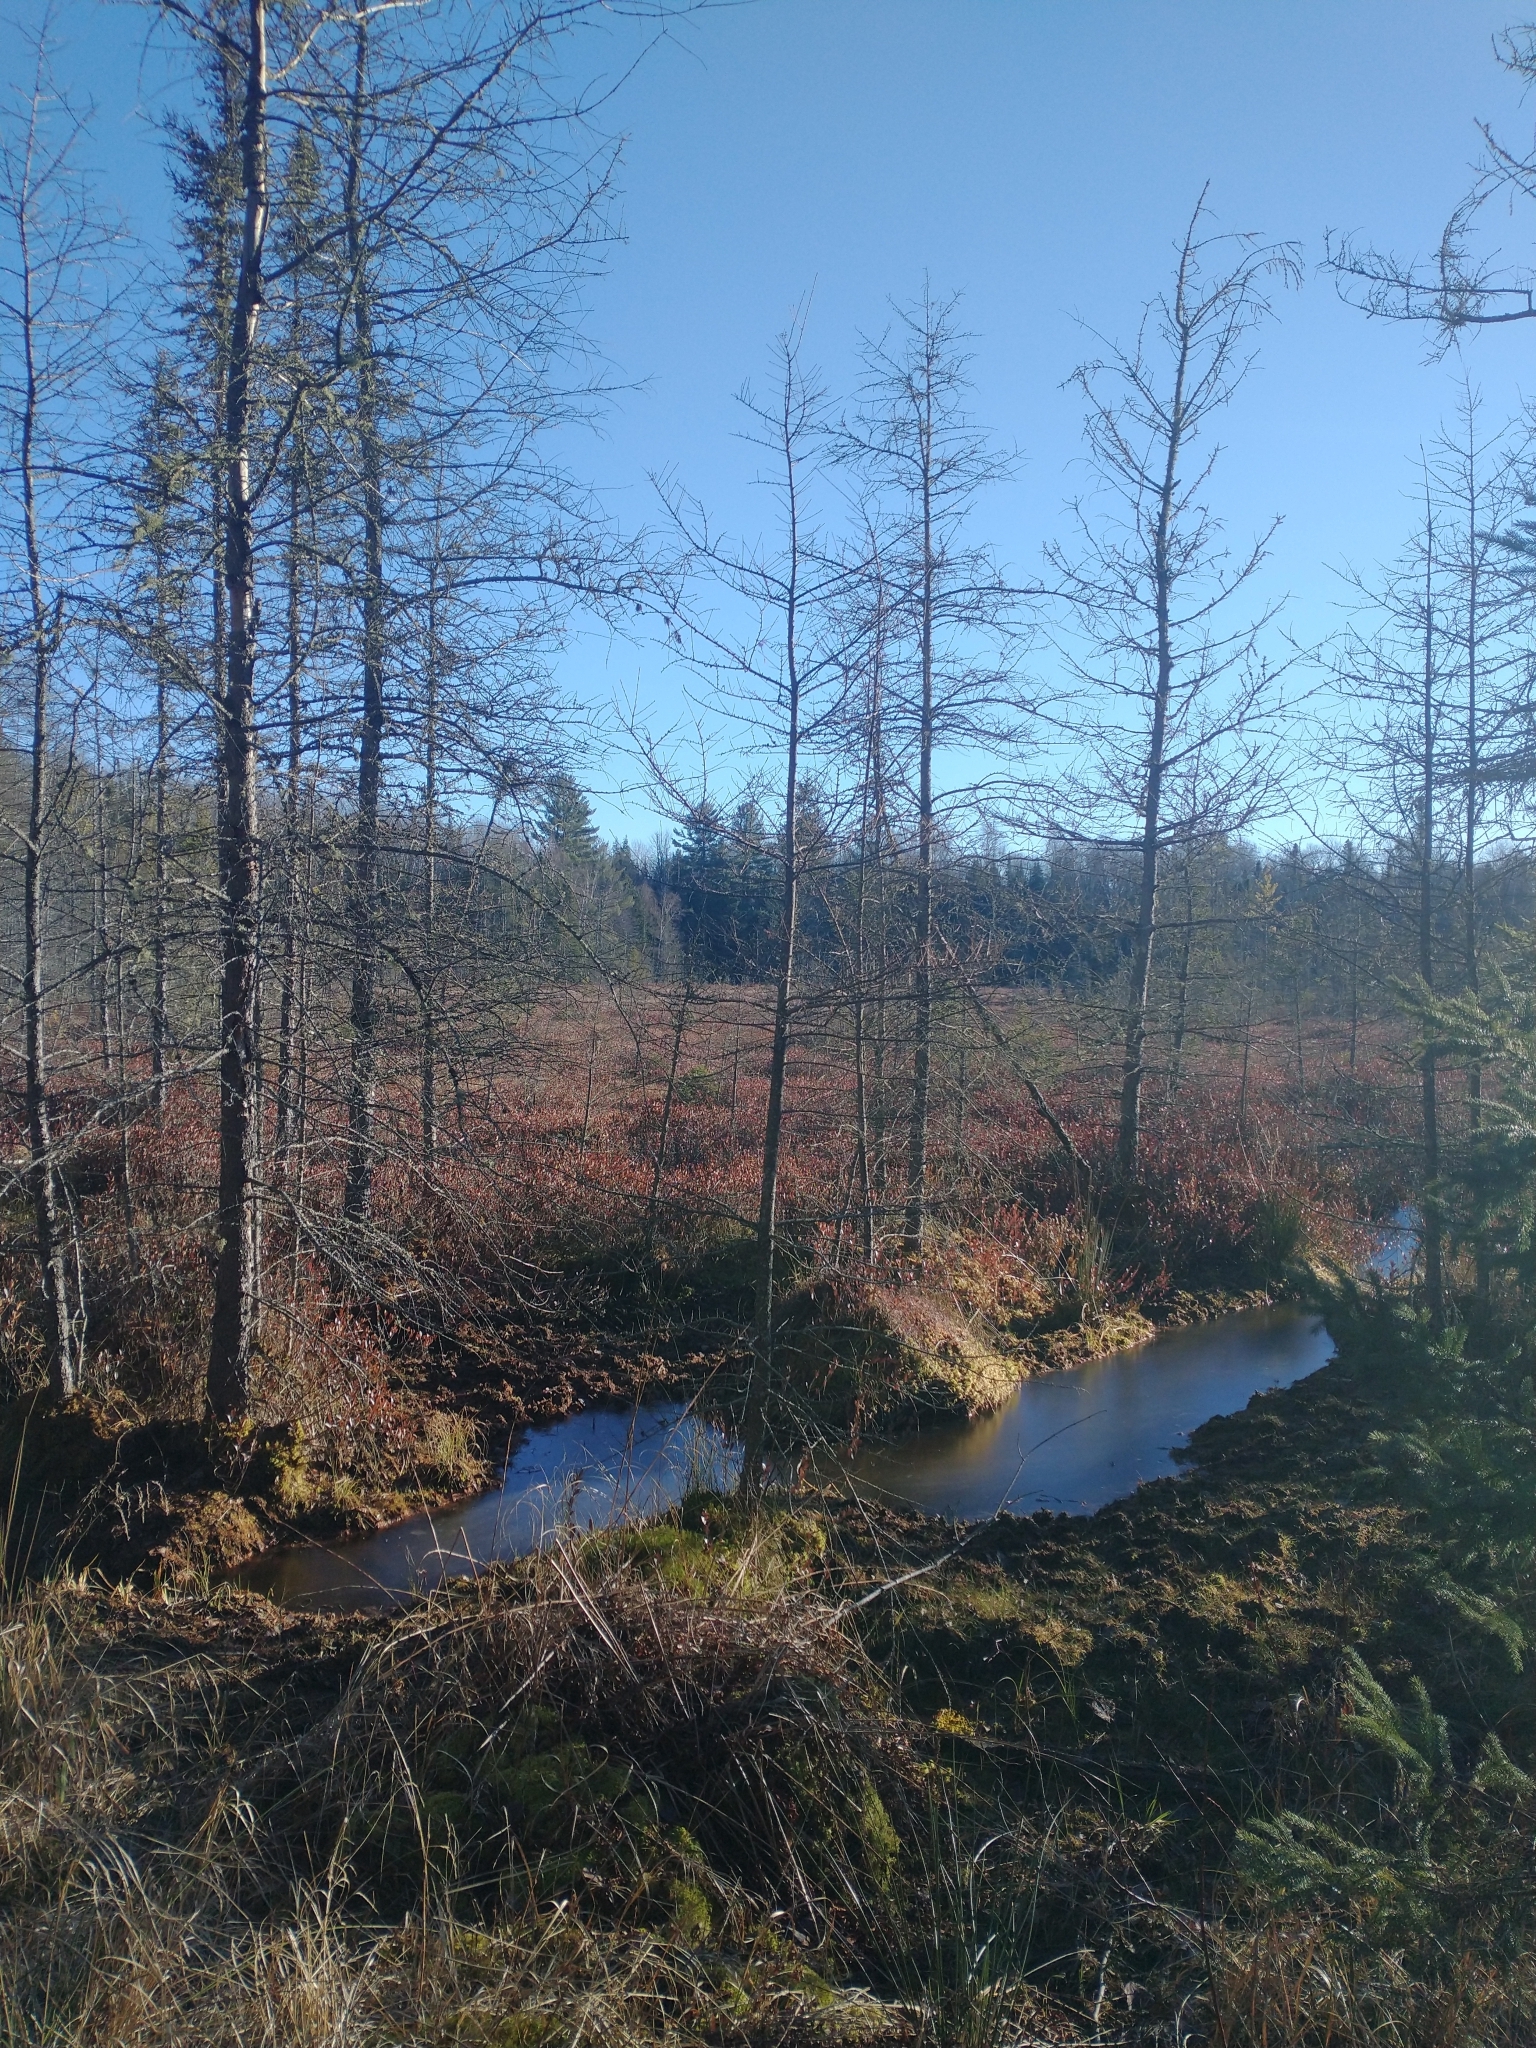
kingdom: Plantae
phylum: Tracheophyta
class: Pinopsida
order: Pinales
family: Pinaceae
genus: Larix
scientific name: Larix laricina
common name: American larch
